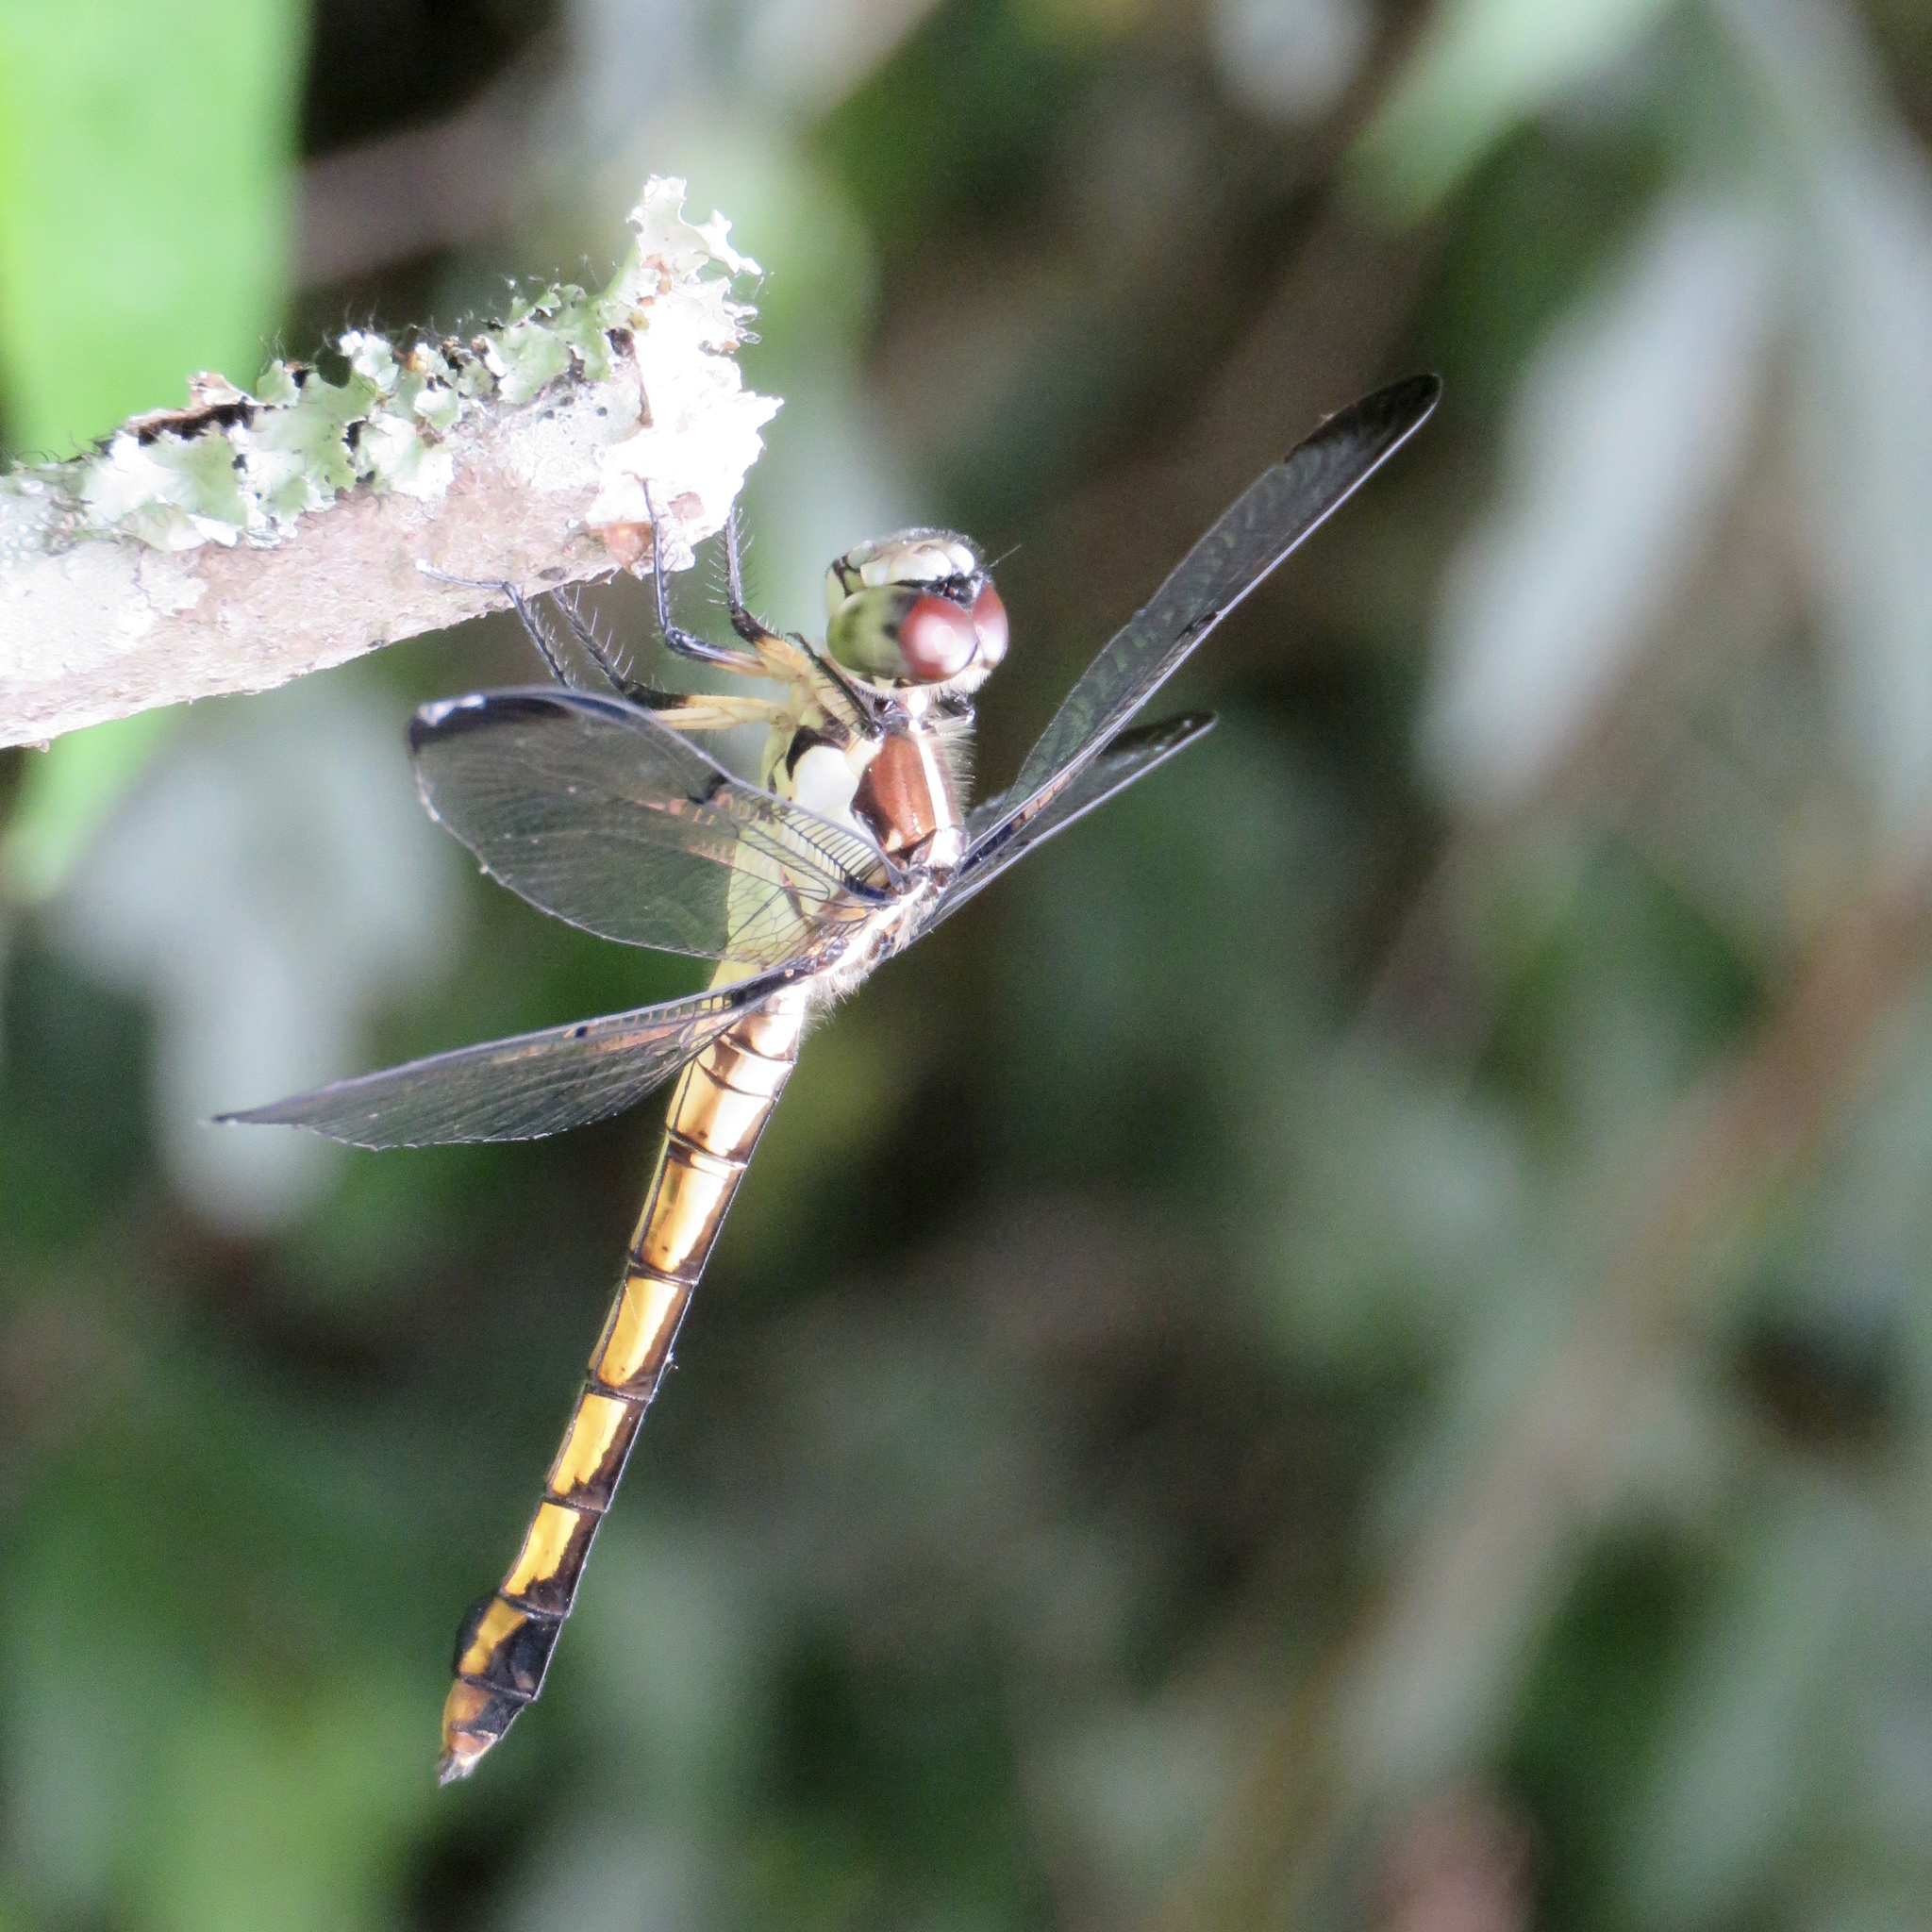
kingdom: Animalia
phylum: Arthropoda
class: Insecta
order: Odonata
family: Libellulidae
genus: Libellula
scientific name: Libellula vibrans
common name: Great blue skimmer
